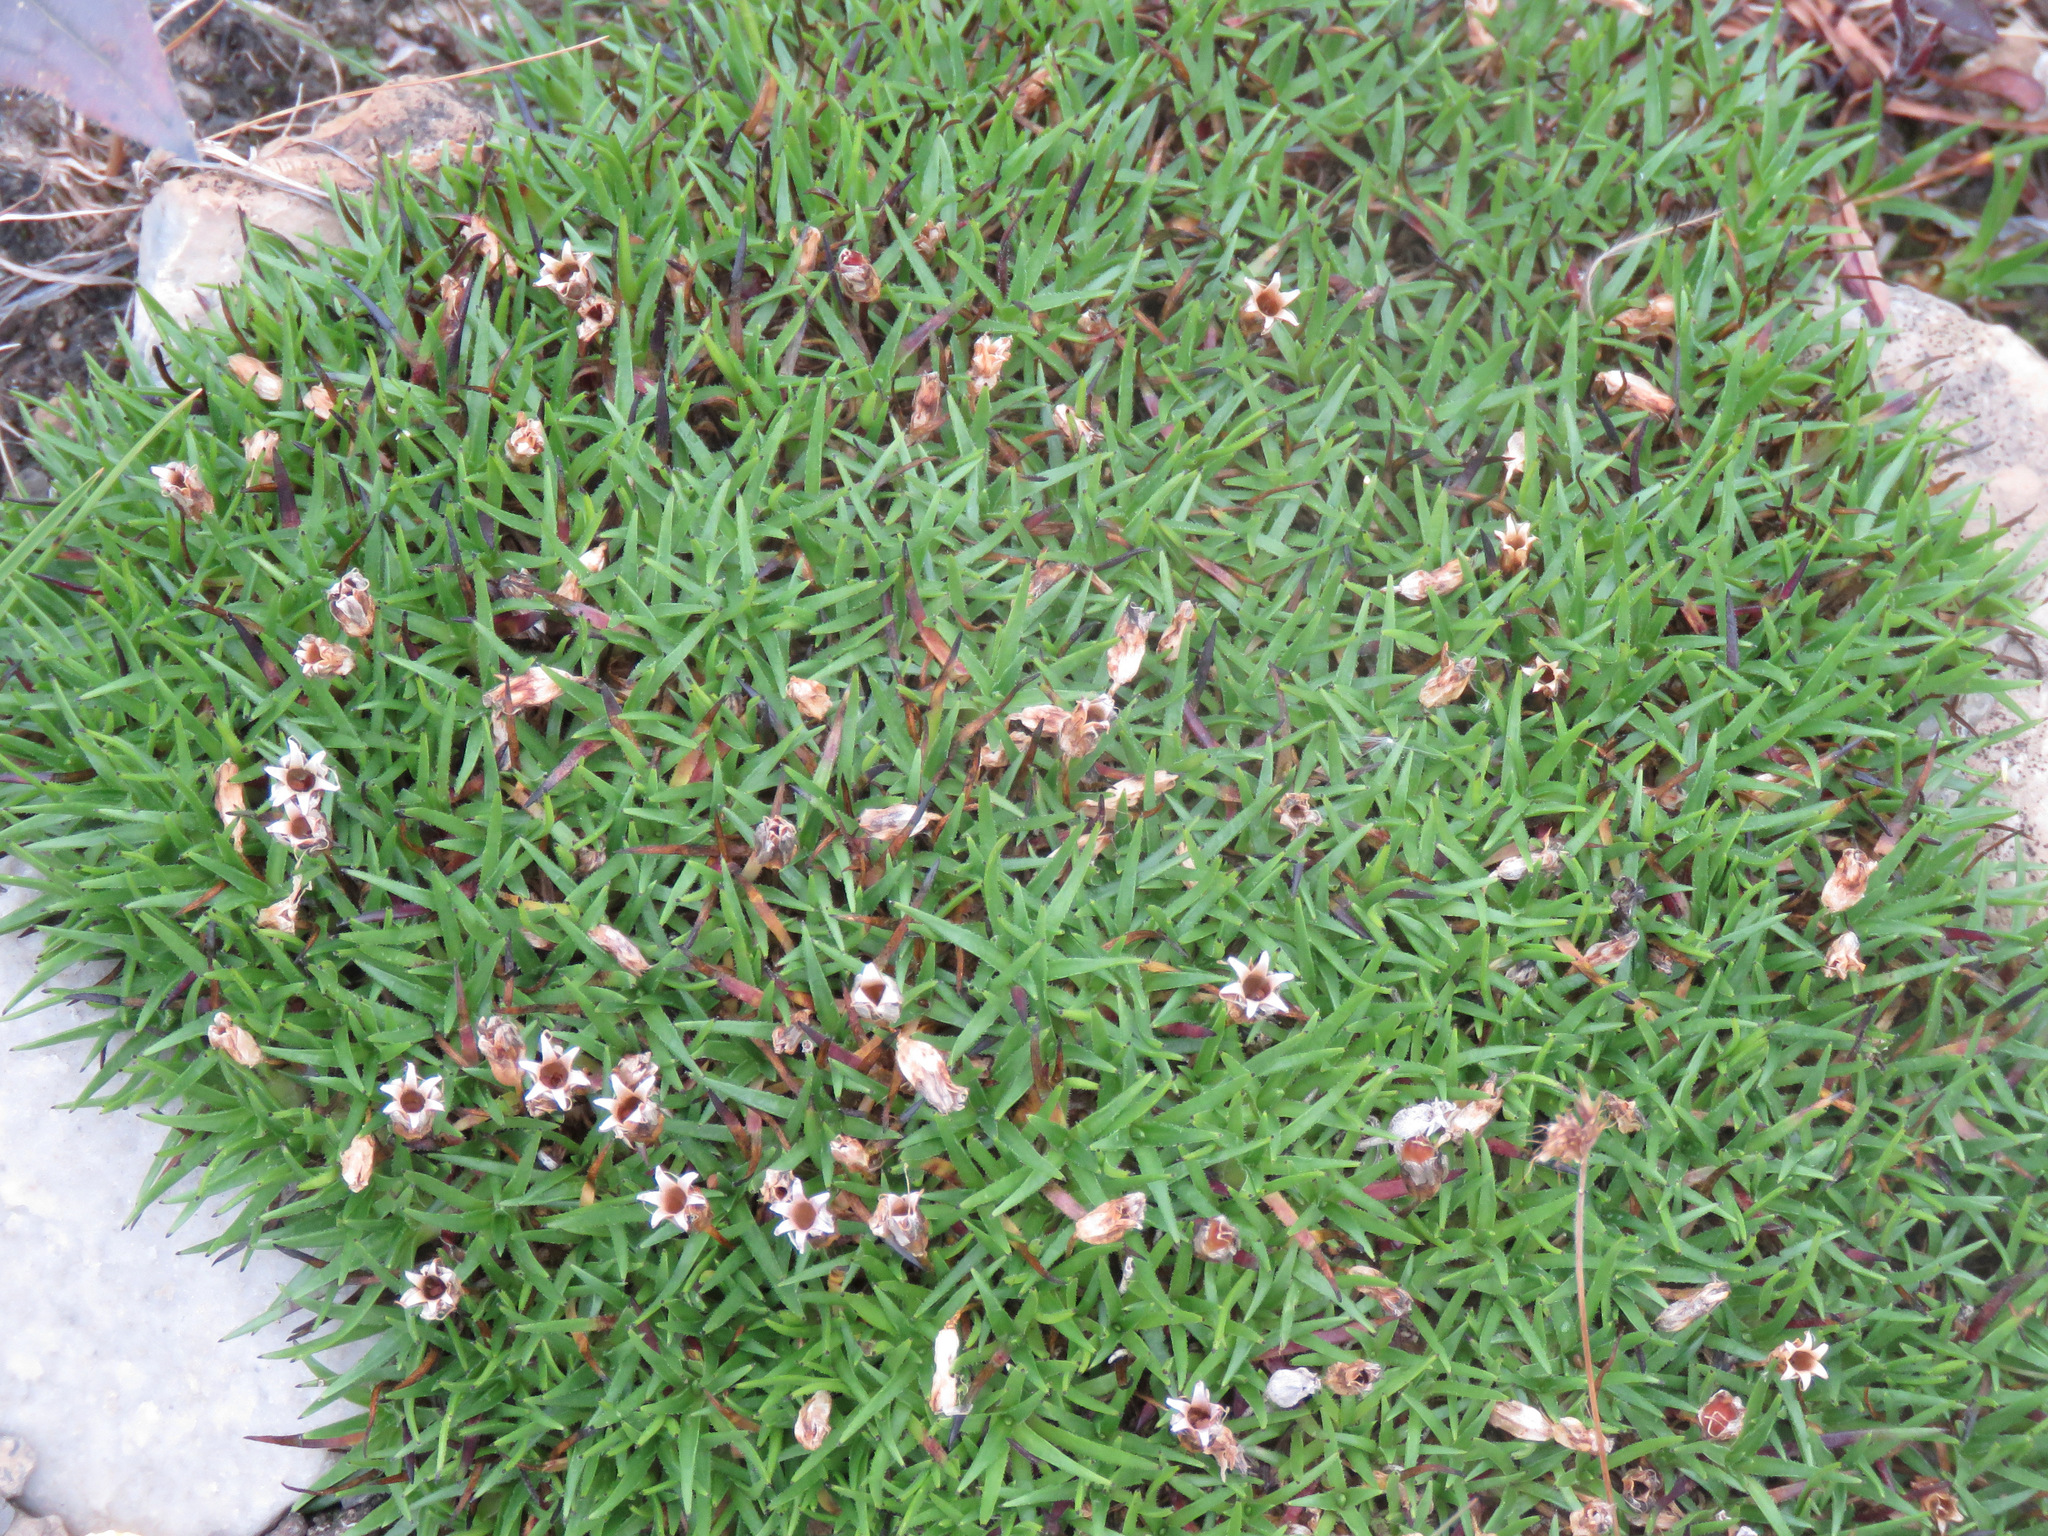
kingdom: Plantae
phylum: Tracheophyta
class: Magnoliopsida
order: Caryophyllales
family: Caryophyllaceae
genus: Silene
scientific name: Silene acaulis
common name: Moss campion
